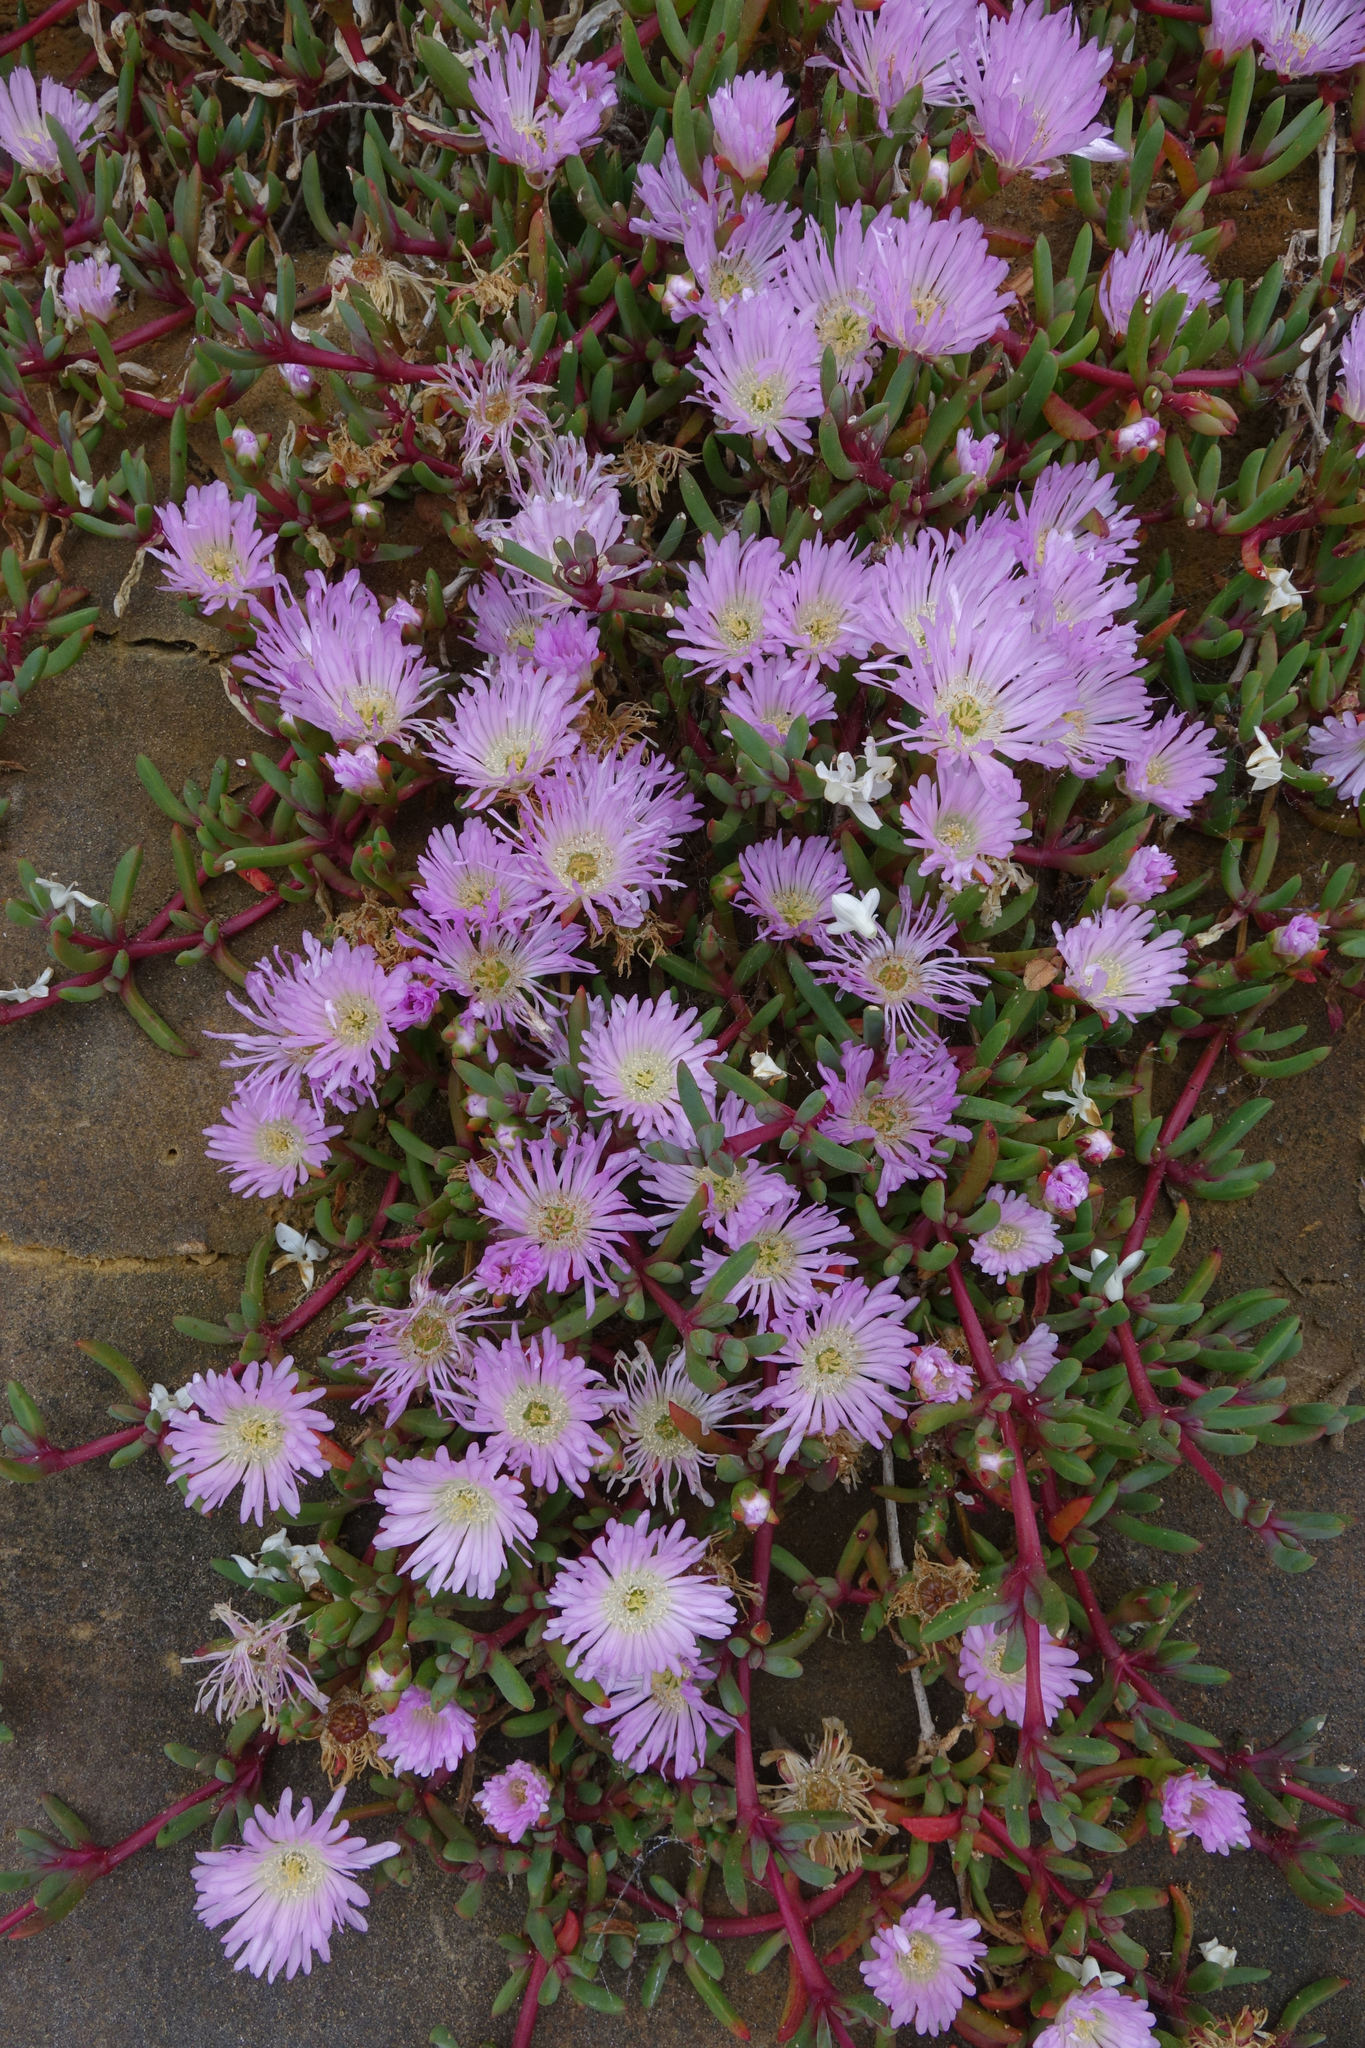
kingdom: Plantae
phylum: Tracheophyta
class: Magnoliopsida
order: Caryophyllales
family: Aizoaceae
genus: Disphyma
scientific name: Disphyma australe
